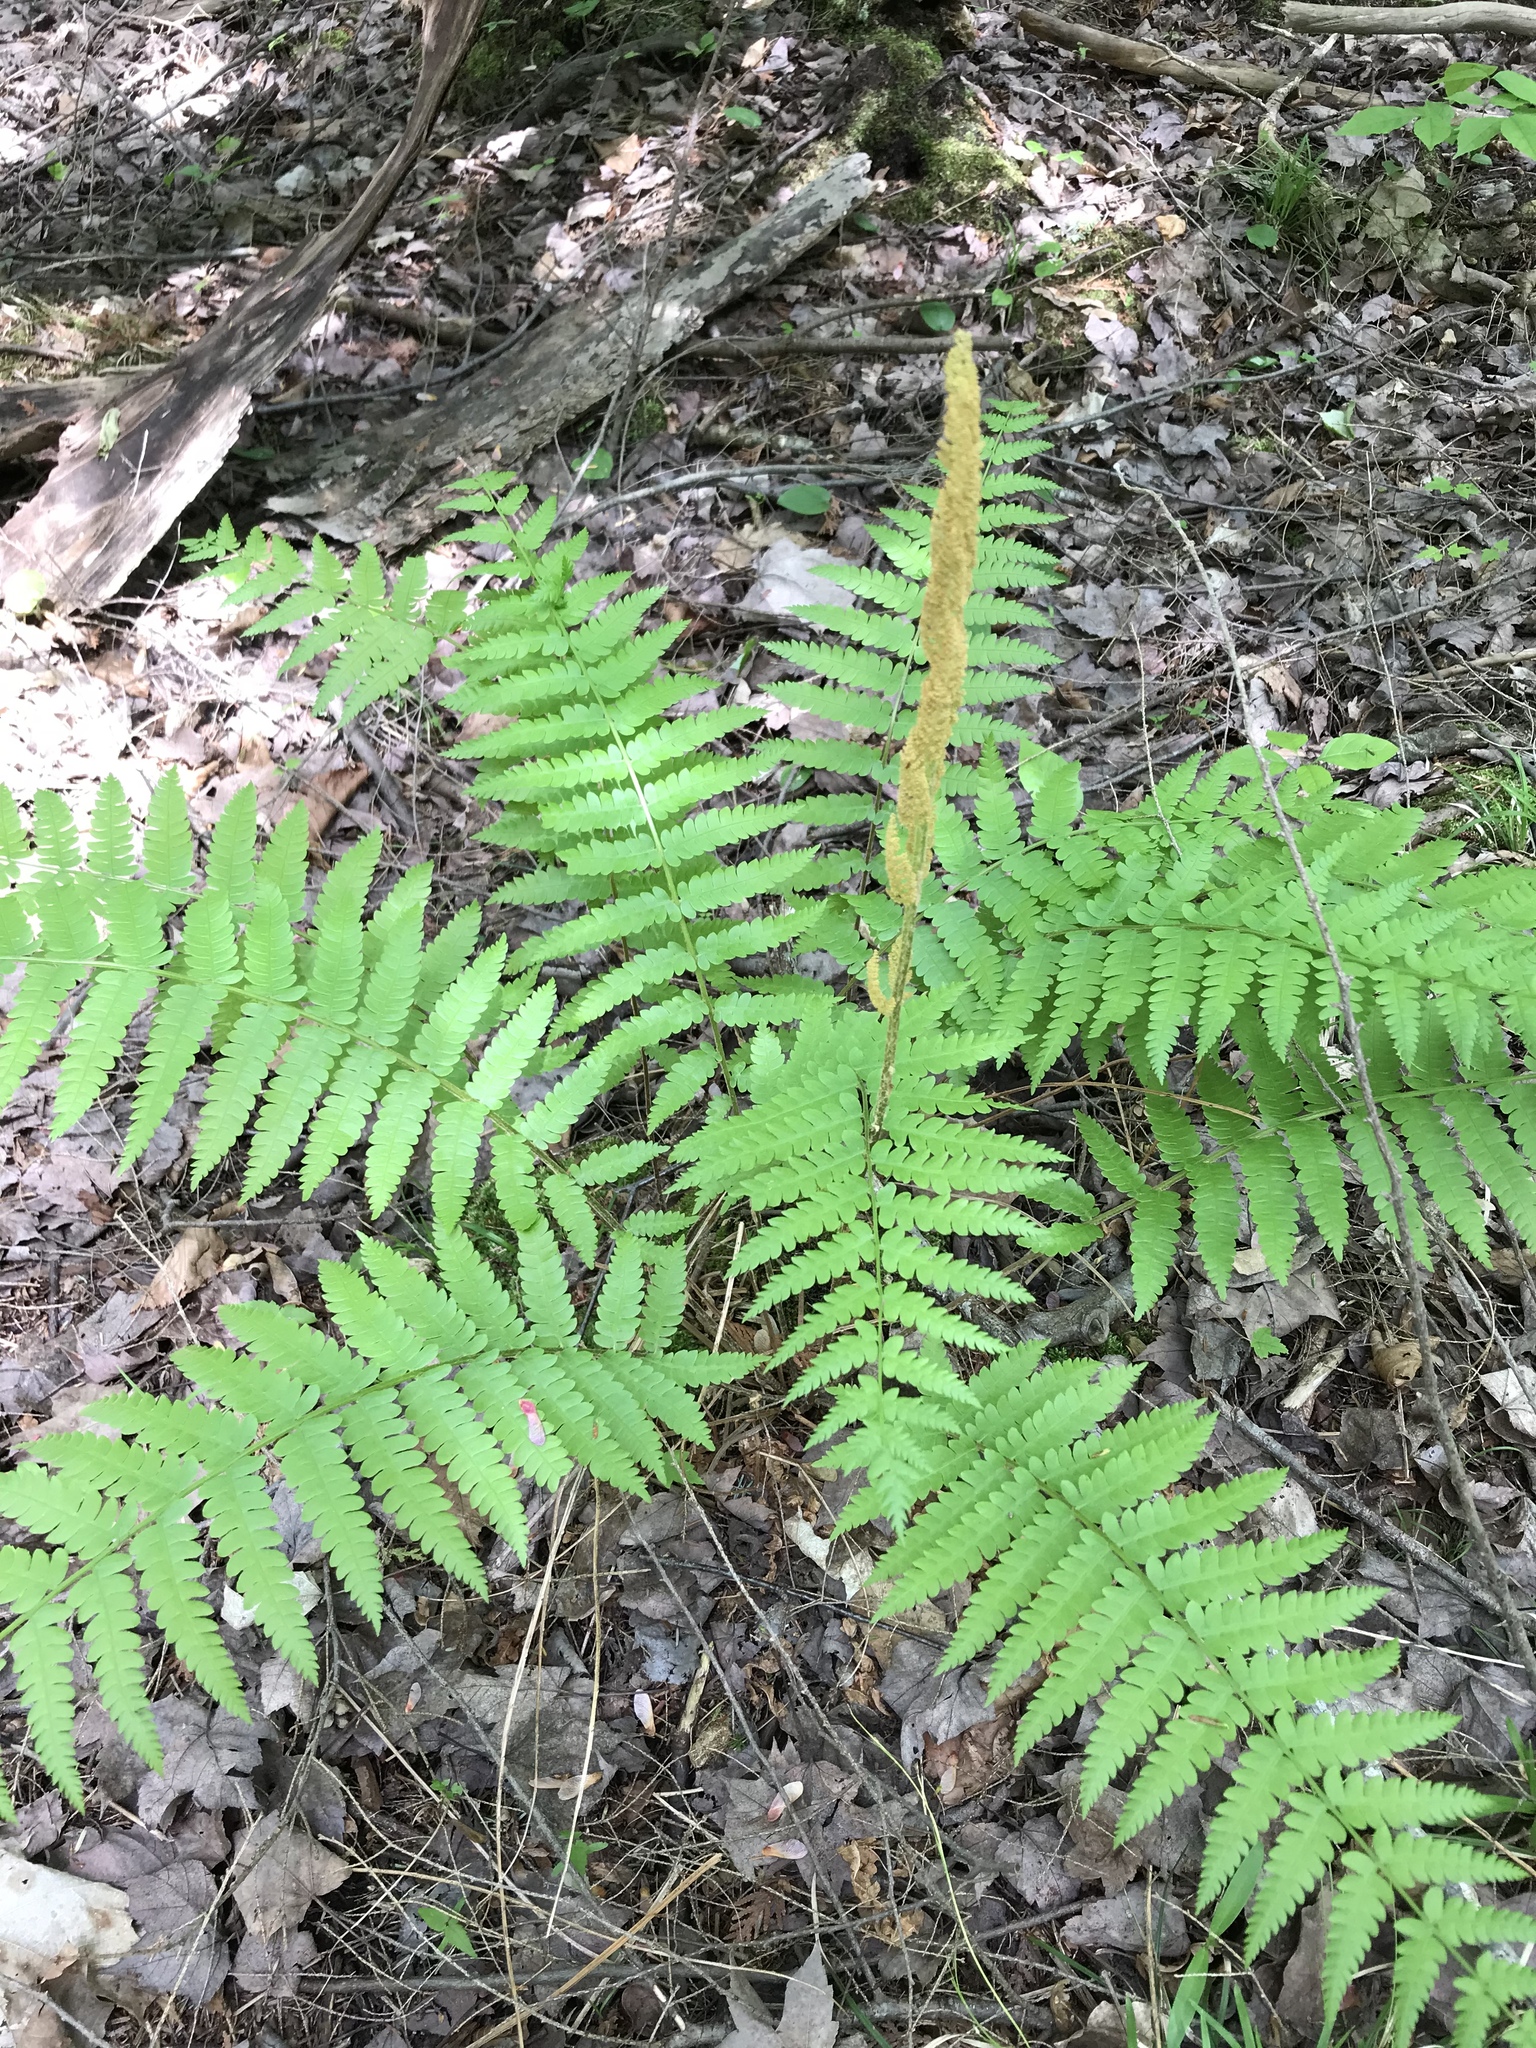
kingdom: Plantae
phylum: Tracheophyta
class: Polypodiopsida
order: Osmundales
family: Osmundaceae
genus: Osmundastrum
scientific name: Osmundastrum cinnamomeum
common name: Cinnamon fern
